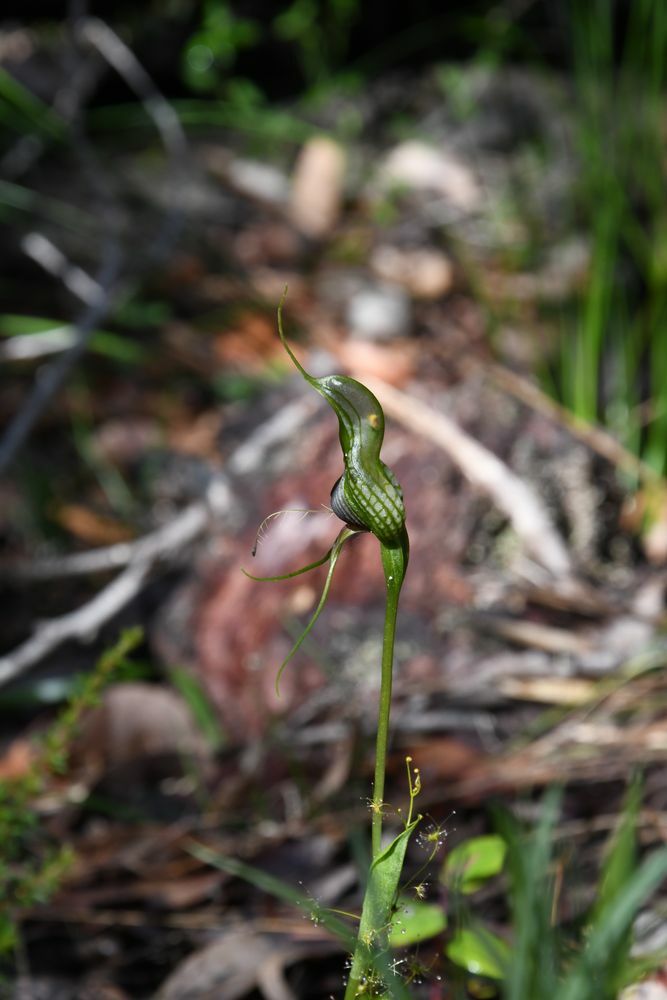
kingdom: Plantae
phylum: Tracheophyta
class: Liliopsida
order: Asparagales
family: Orchidaceae
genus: Pterostylis
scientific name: Pterostylis barbata
